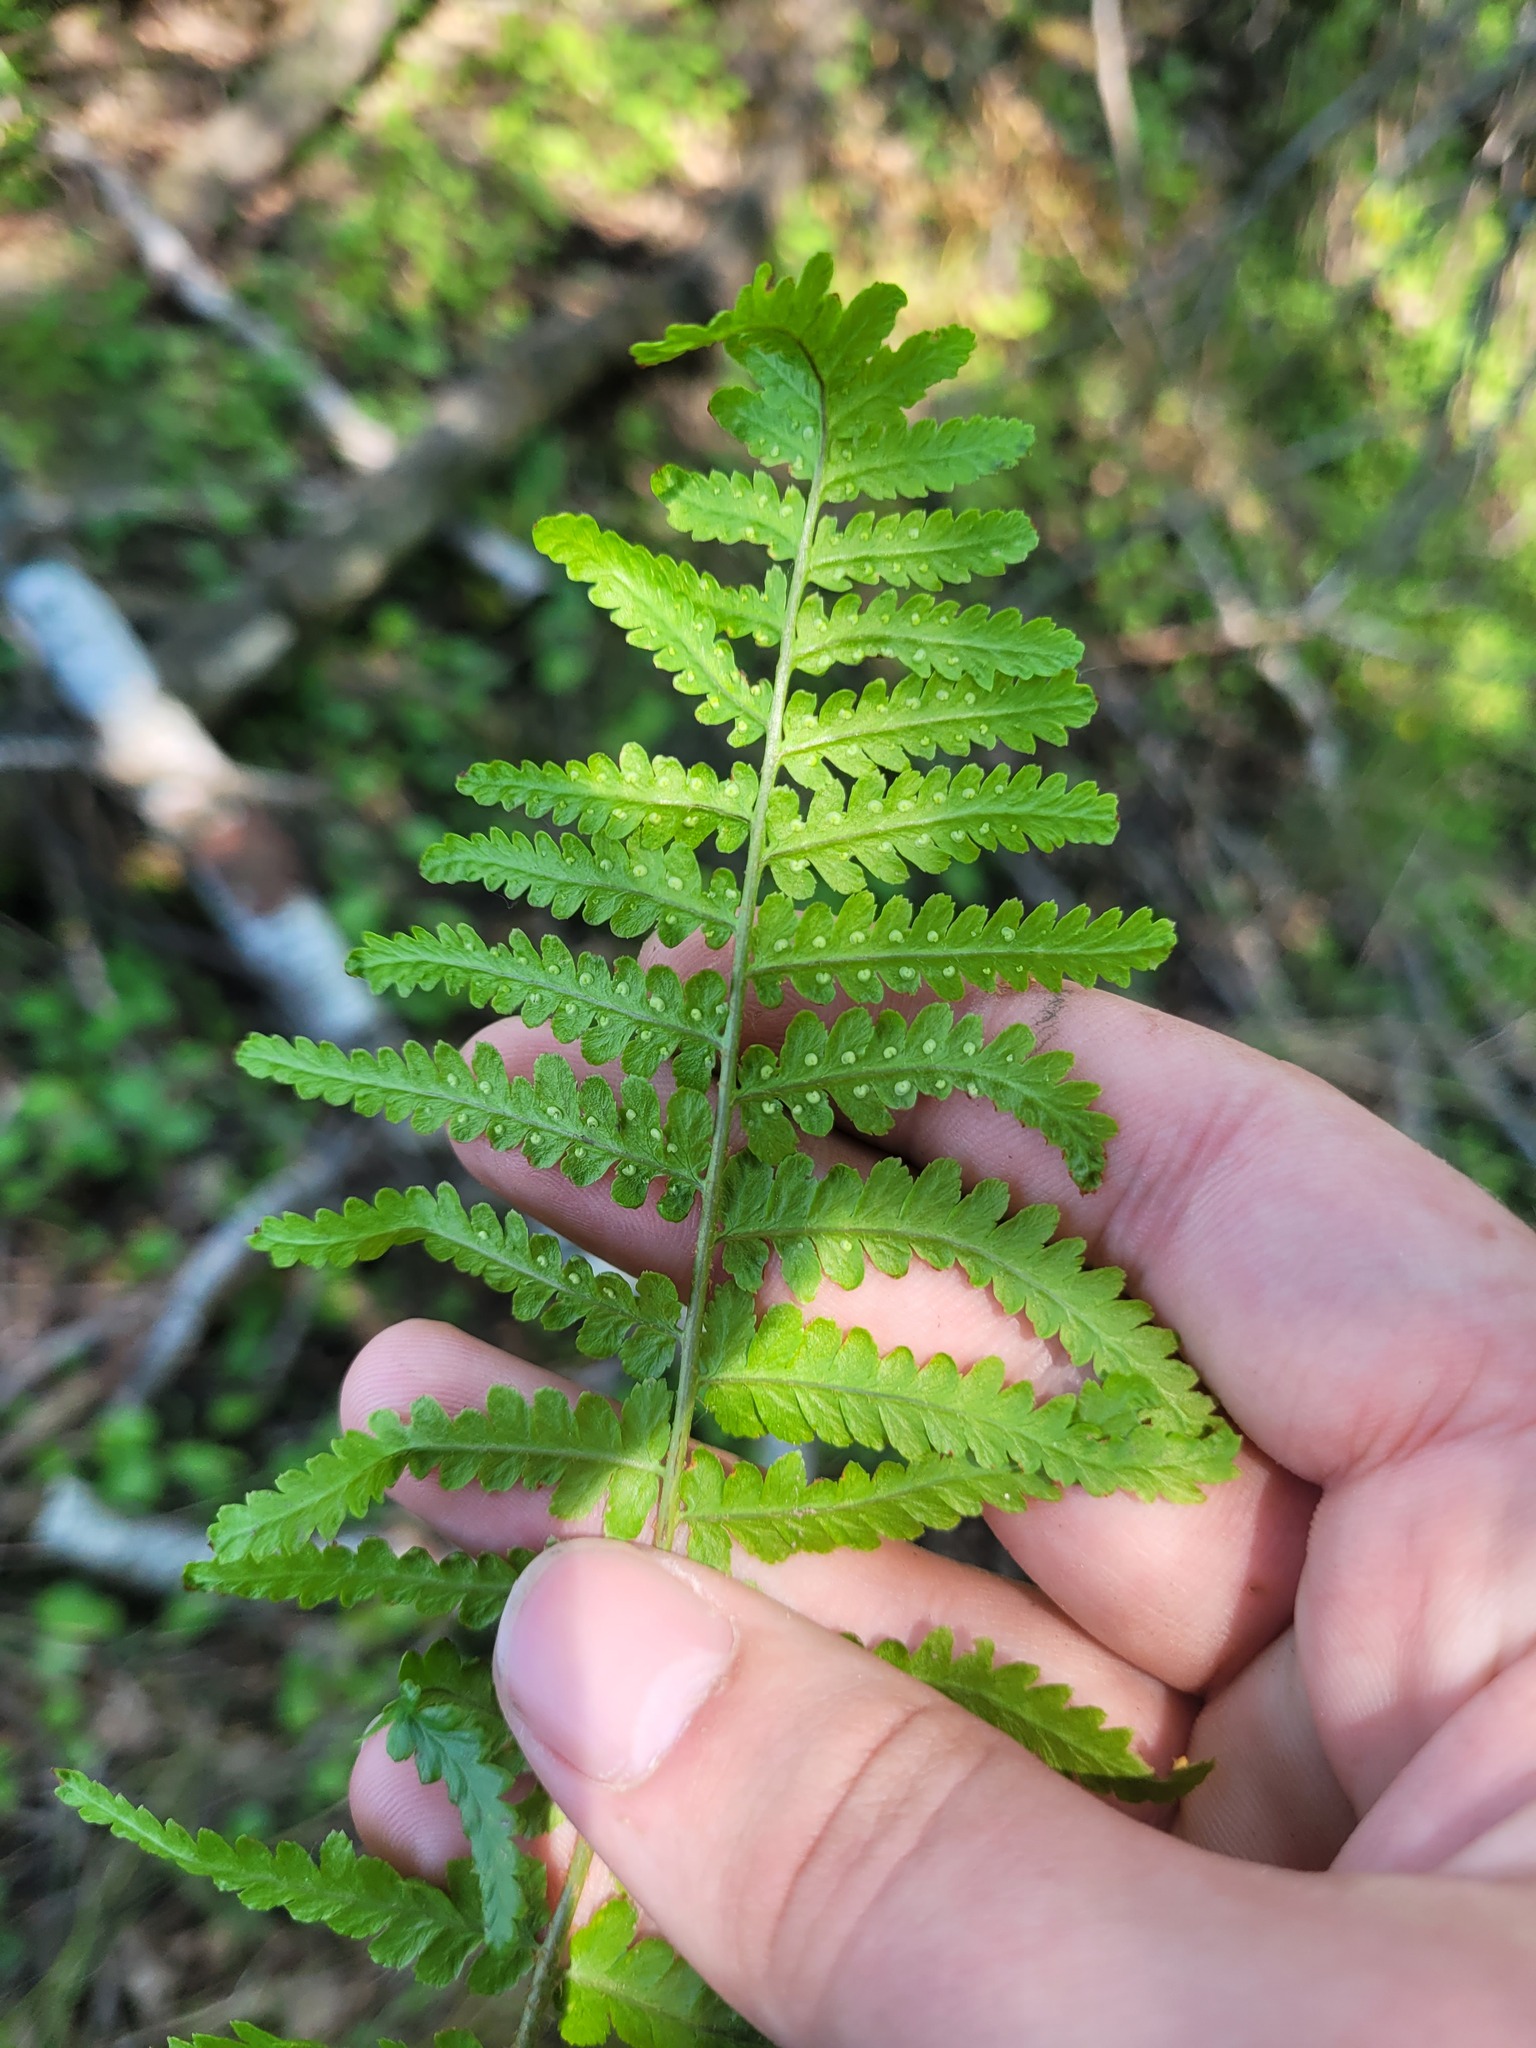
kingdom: Plantae
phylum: Tracheophyta
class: Polypodiopsida
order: Polypodiales
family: Dryopteridaceae
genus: Dryopteris
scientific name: Dryopteris filix-mas
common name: Male fern
